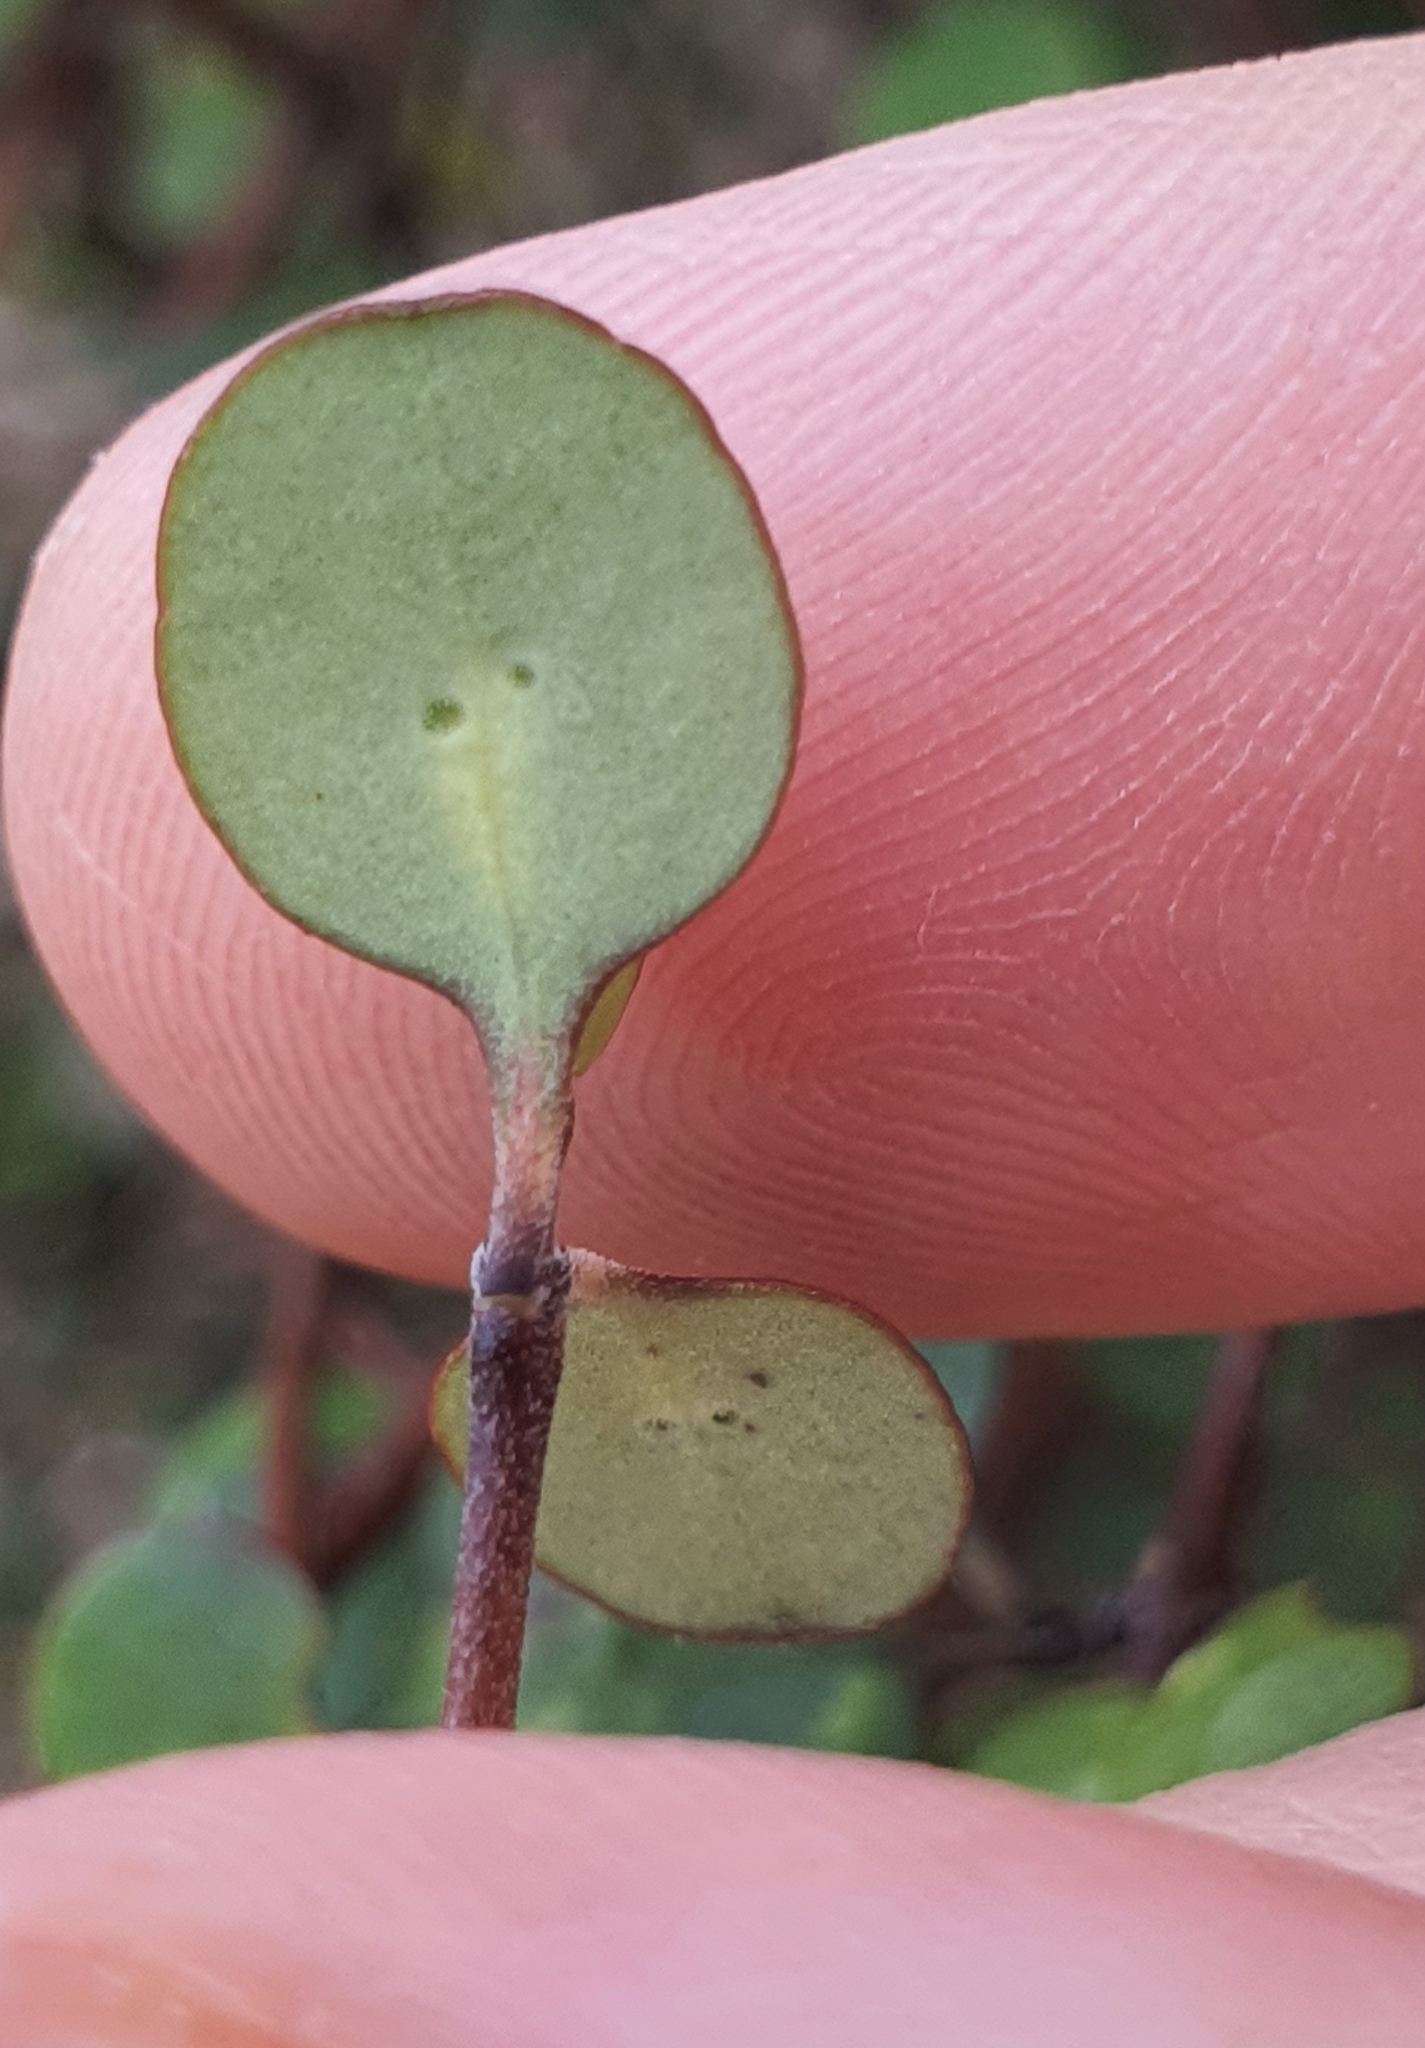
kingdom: Plantae
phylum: Tracheophyta
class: Magnoliopsida
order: Gentianales
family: Rubiaceae
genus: Coprosma
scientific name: Coprosma crassifolia
